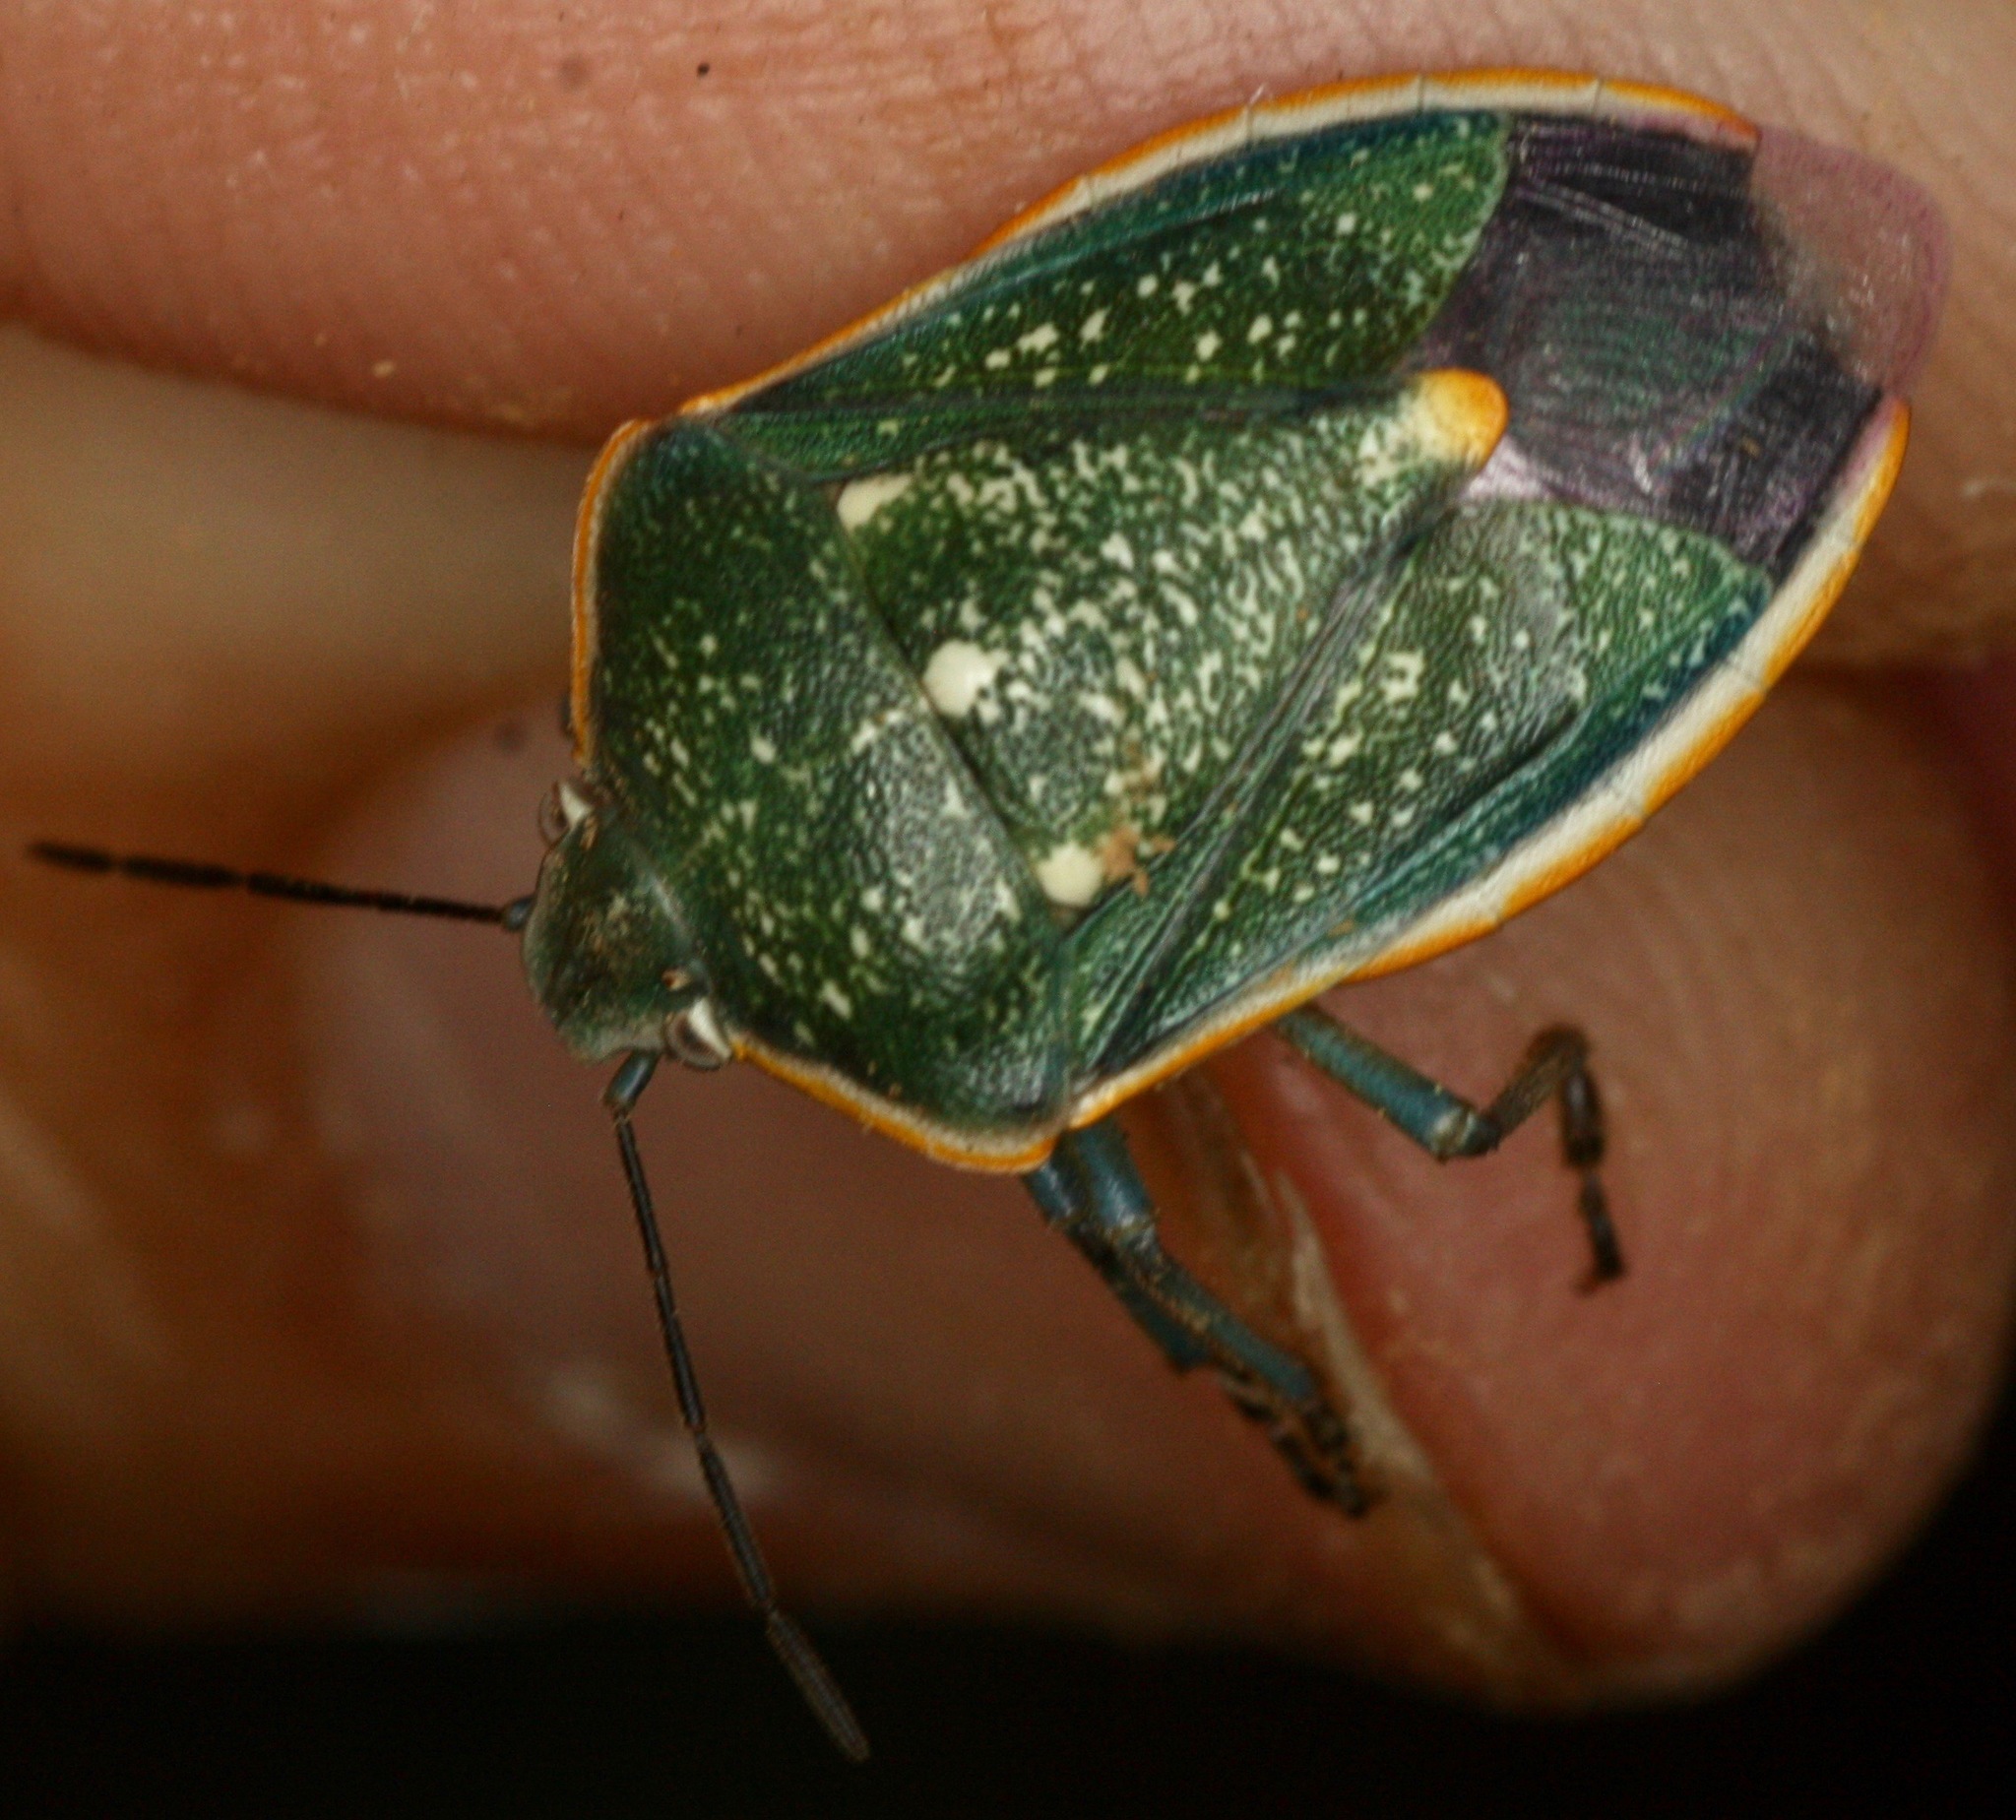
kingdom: Animalia
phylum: Arthropoda
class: Insecta
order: Hemiptera
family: Pentatomidae
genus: Chlorochroa
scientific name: Chlorochroa sayi
